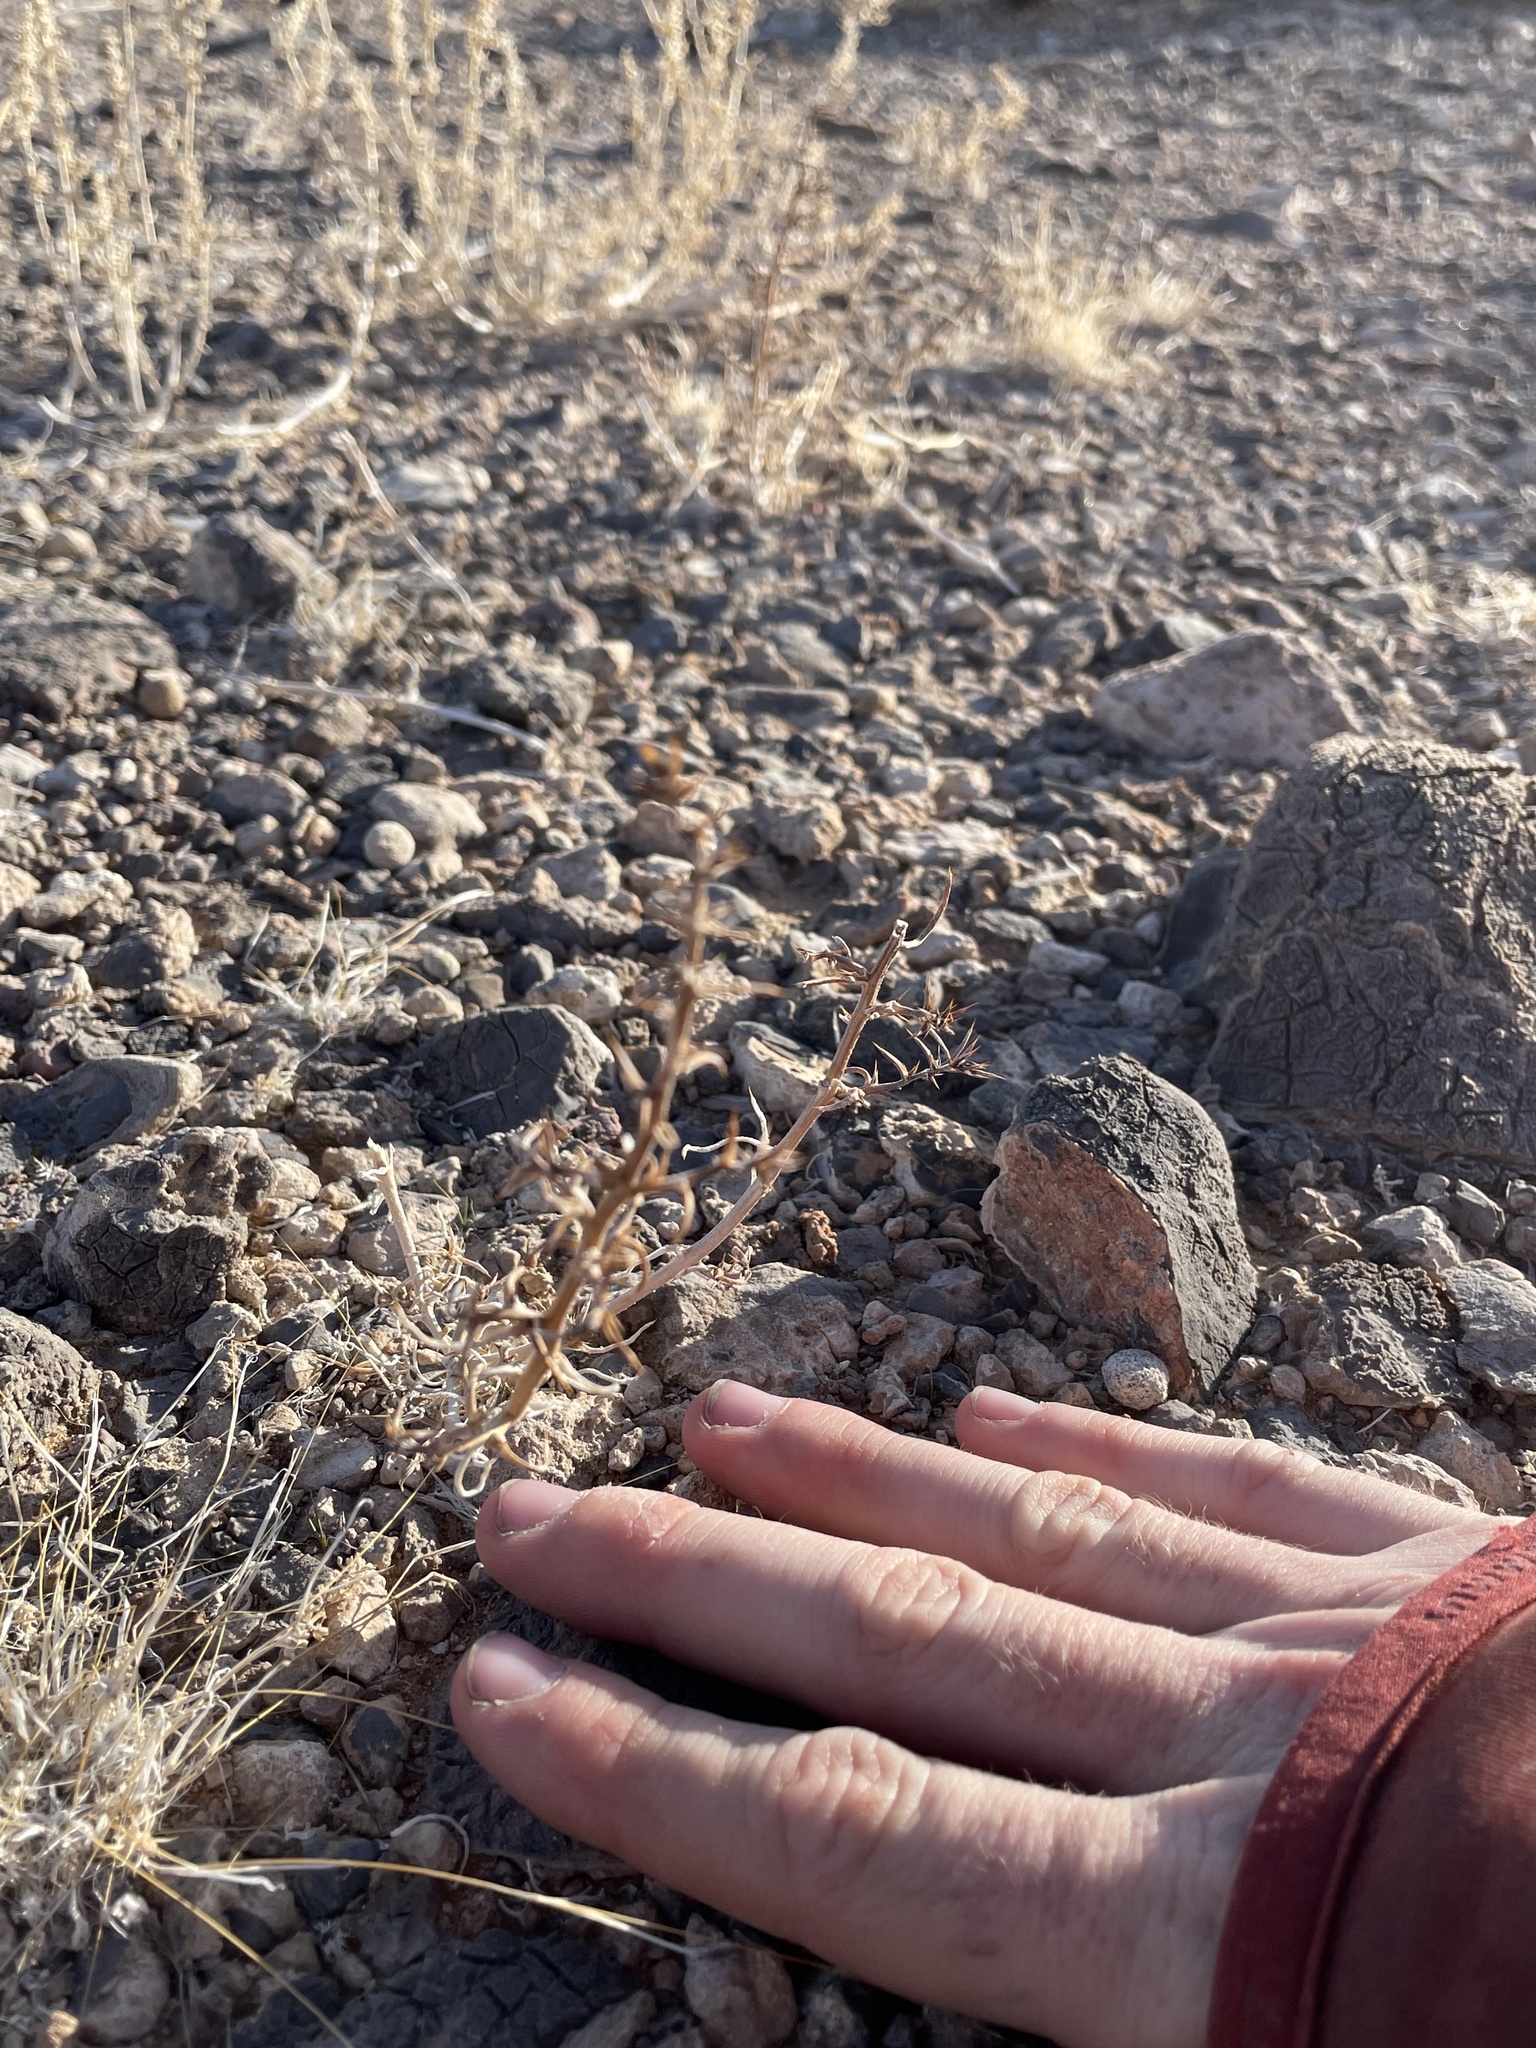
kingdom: Plantae
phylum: Tracheophyta
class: Magnoliopsida
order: Caryophyllales
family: Amaranthaceae
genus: Salsola
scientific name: Salsola
